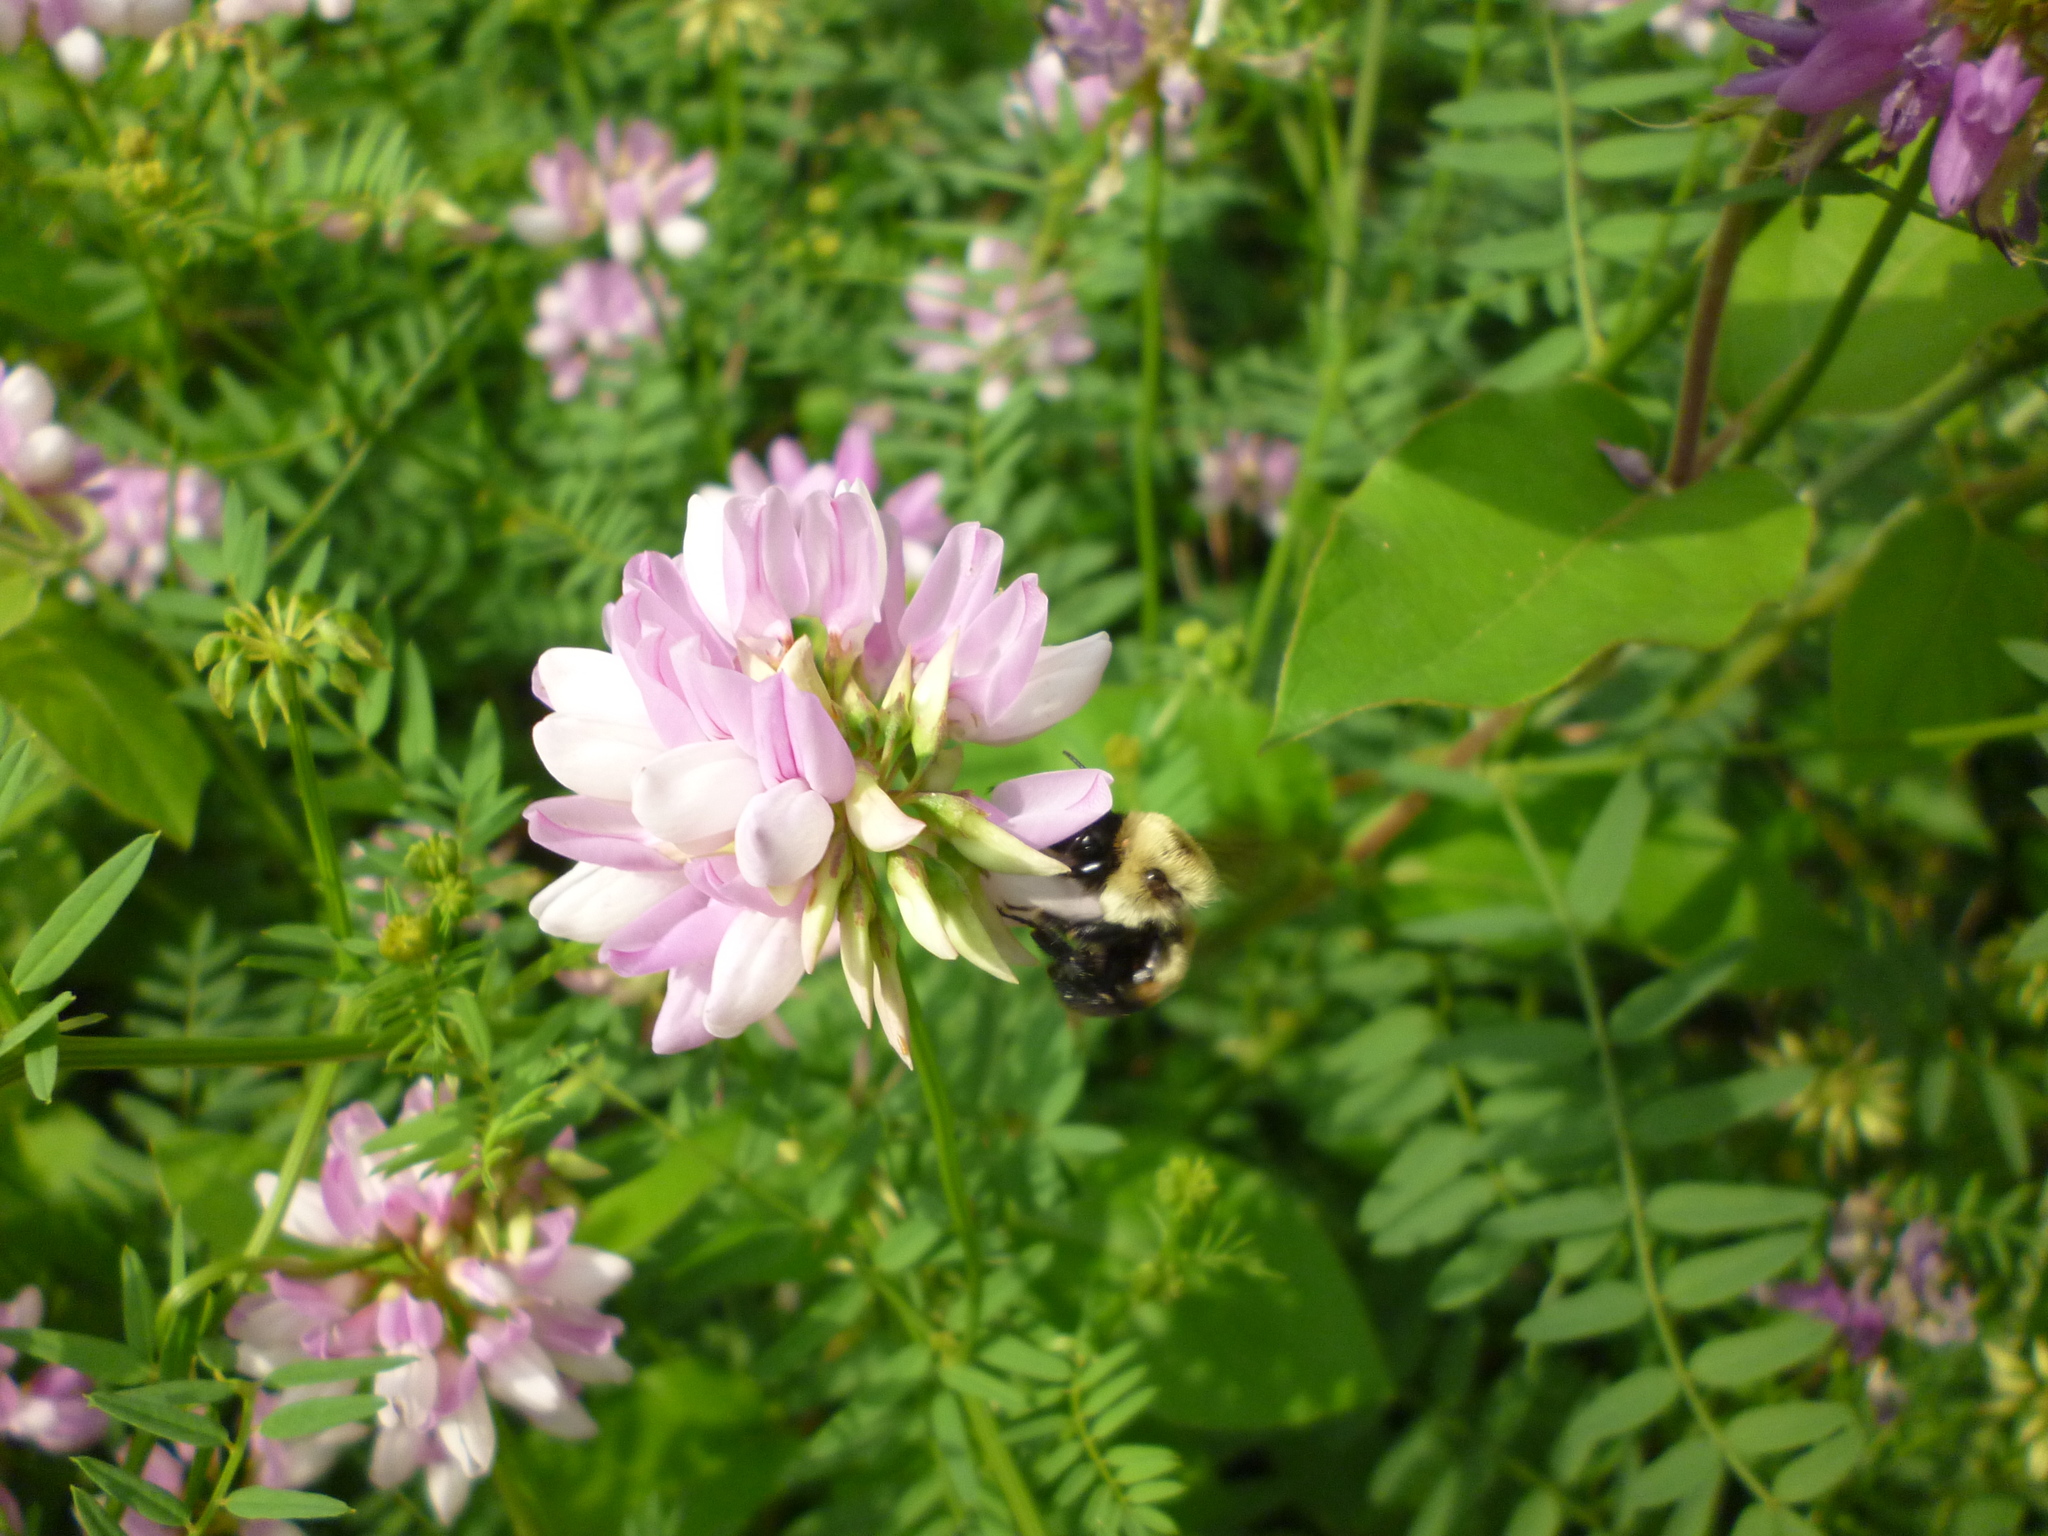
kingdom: Plantae
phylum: Tracheophyta
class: Magnoliopsida
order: Fabales
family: Fabaceae
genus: Coronilla
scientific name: Coronilla varia
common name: Crownvetch
